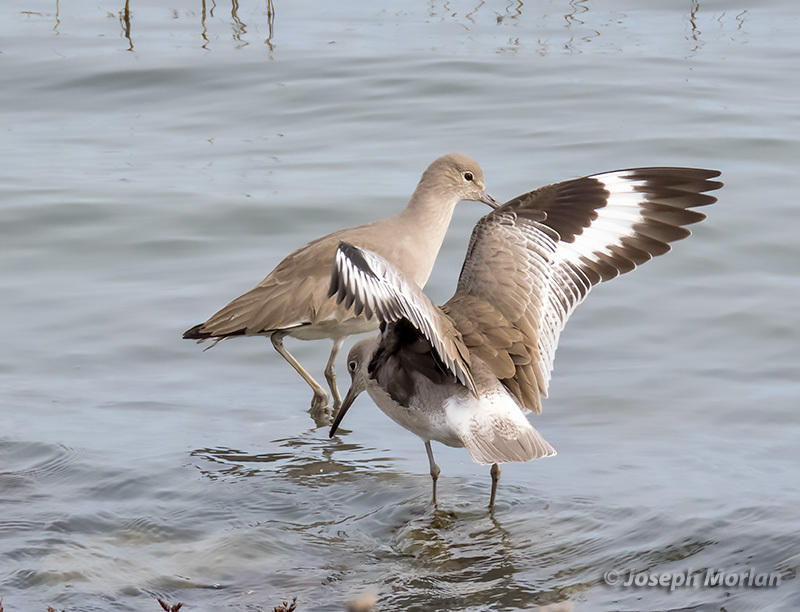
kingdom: Animalia
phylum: Chordata
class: Aves
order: Charadriiformes
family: Scolopacidae
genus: Tringa
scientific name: Tringa semipalmata
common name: Willet
